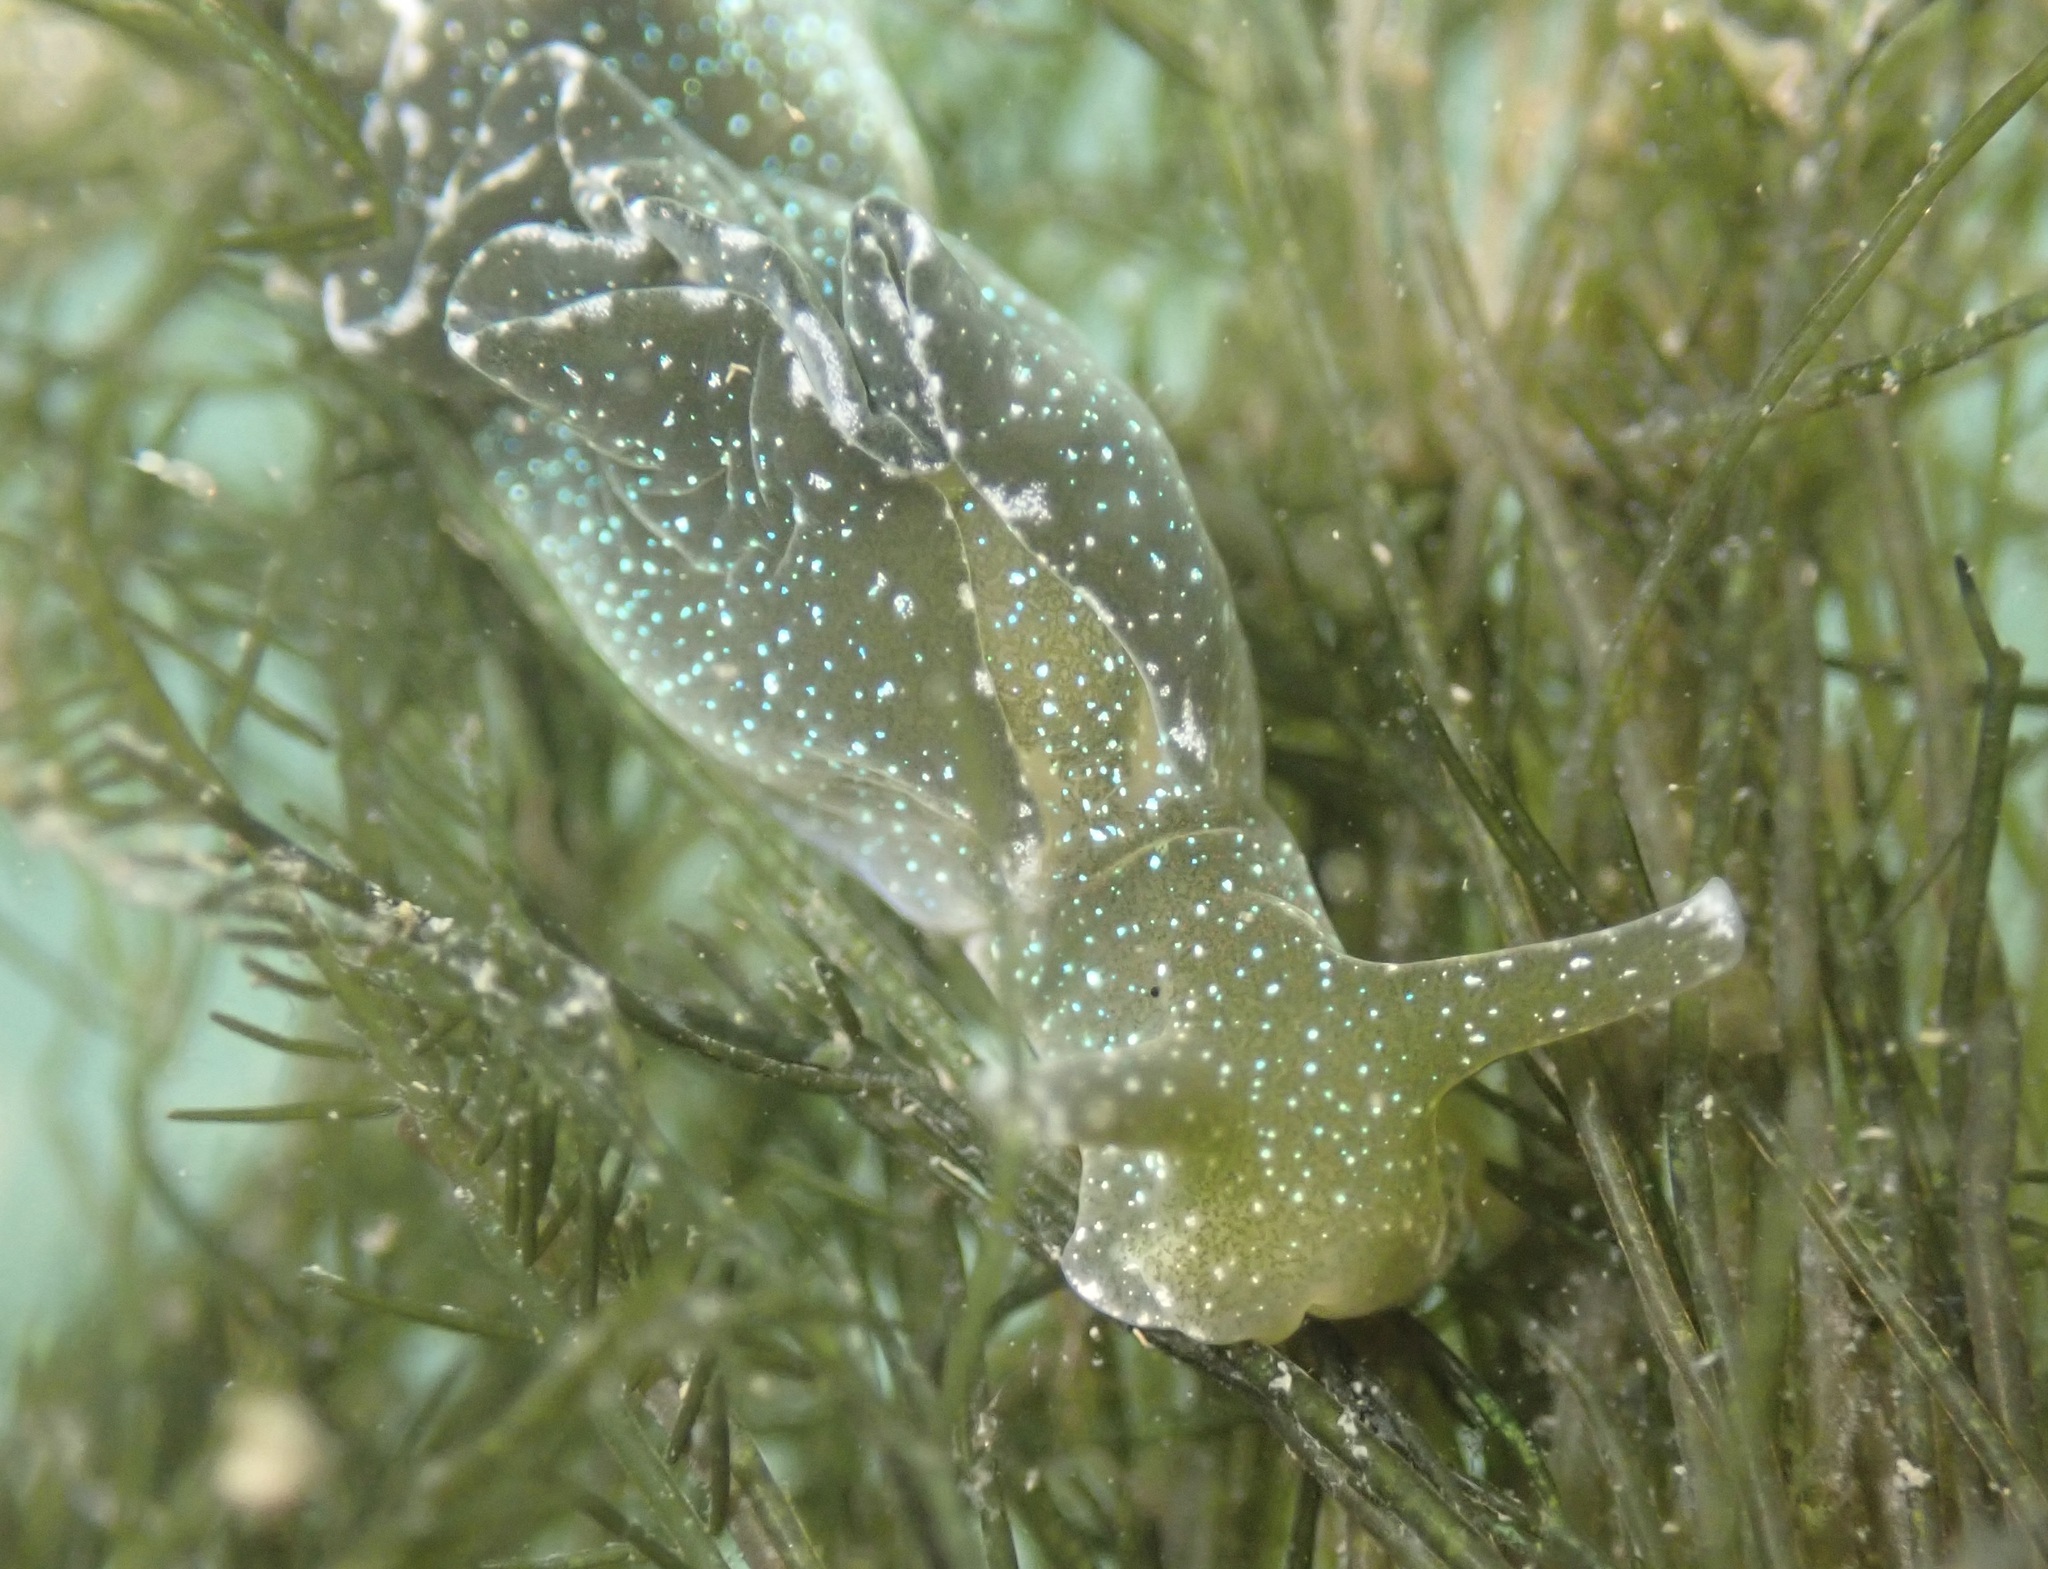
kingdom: Animalia
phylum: Mollusca
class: Gastropoda
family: Plakobranchidae
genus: Elysia
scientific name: Elysia hedgpethi
